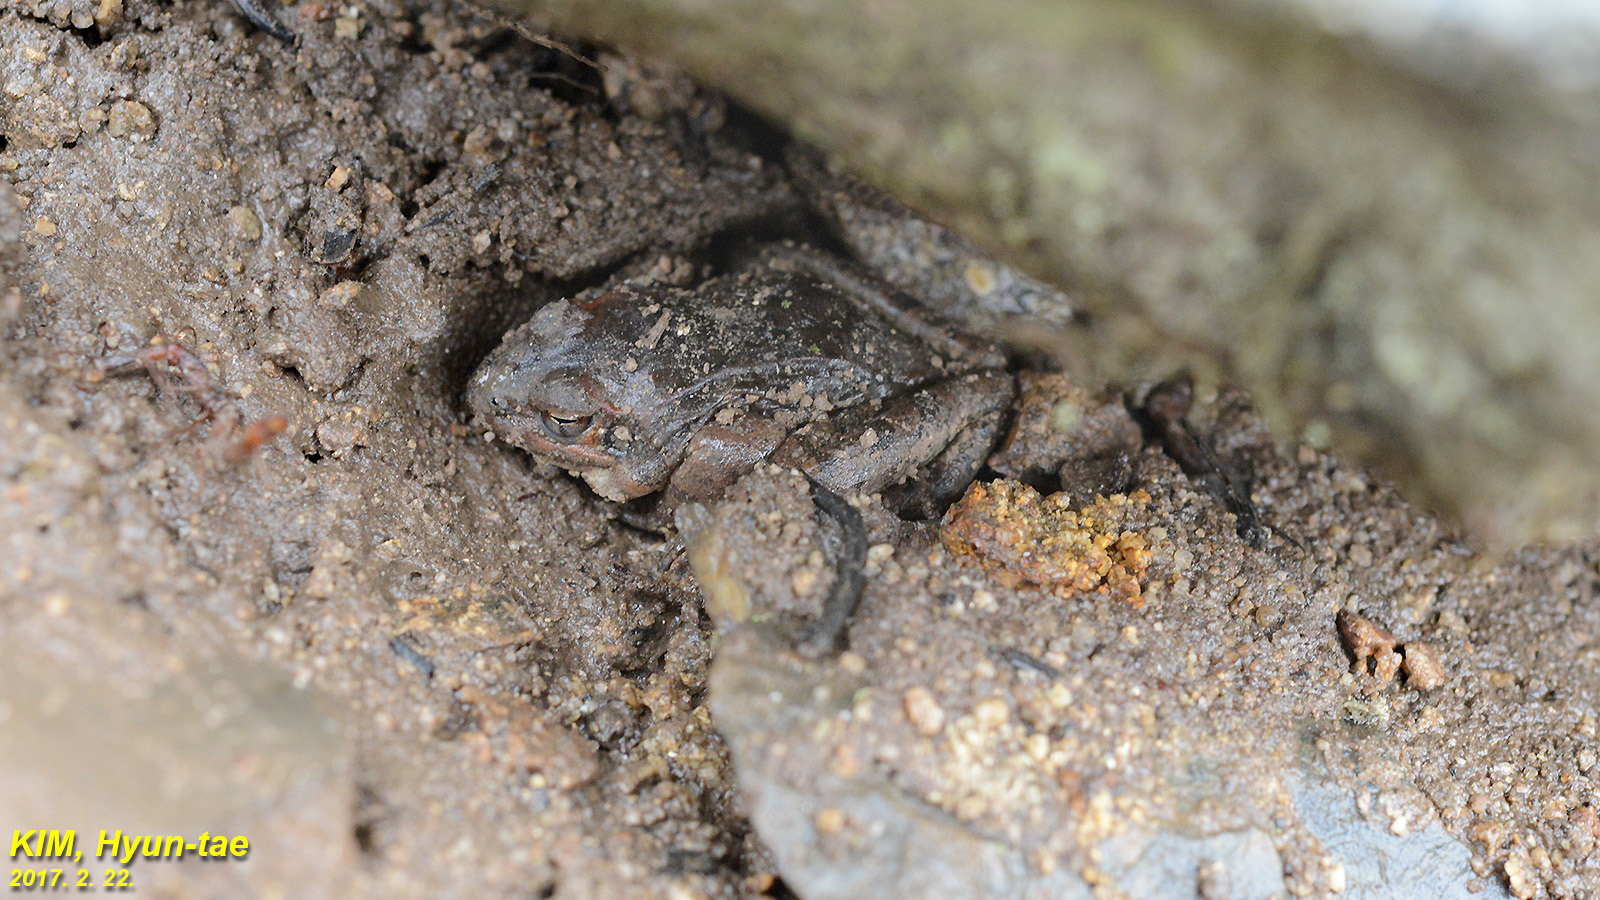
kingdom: Animalia
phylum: Chordata
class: Amphibia
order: Anura
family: Ranidae
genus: Rana
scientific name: Rana uenoi
